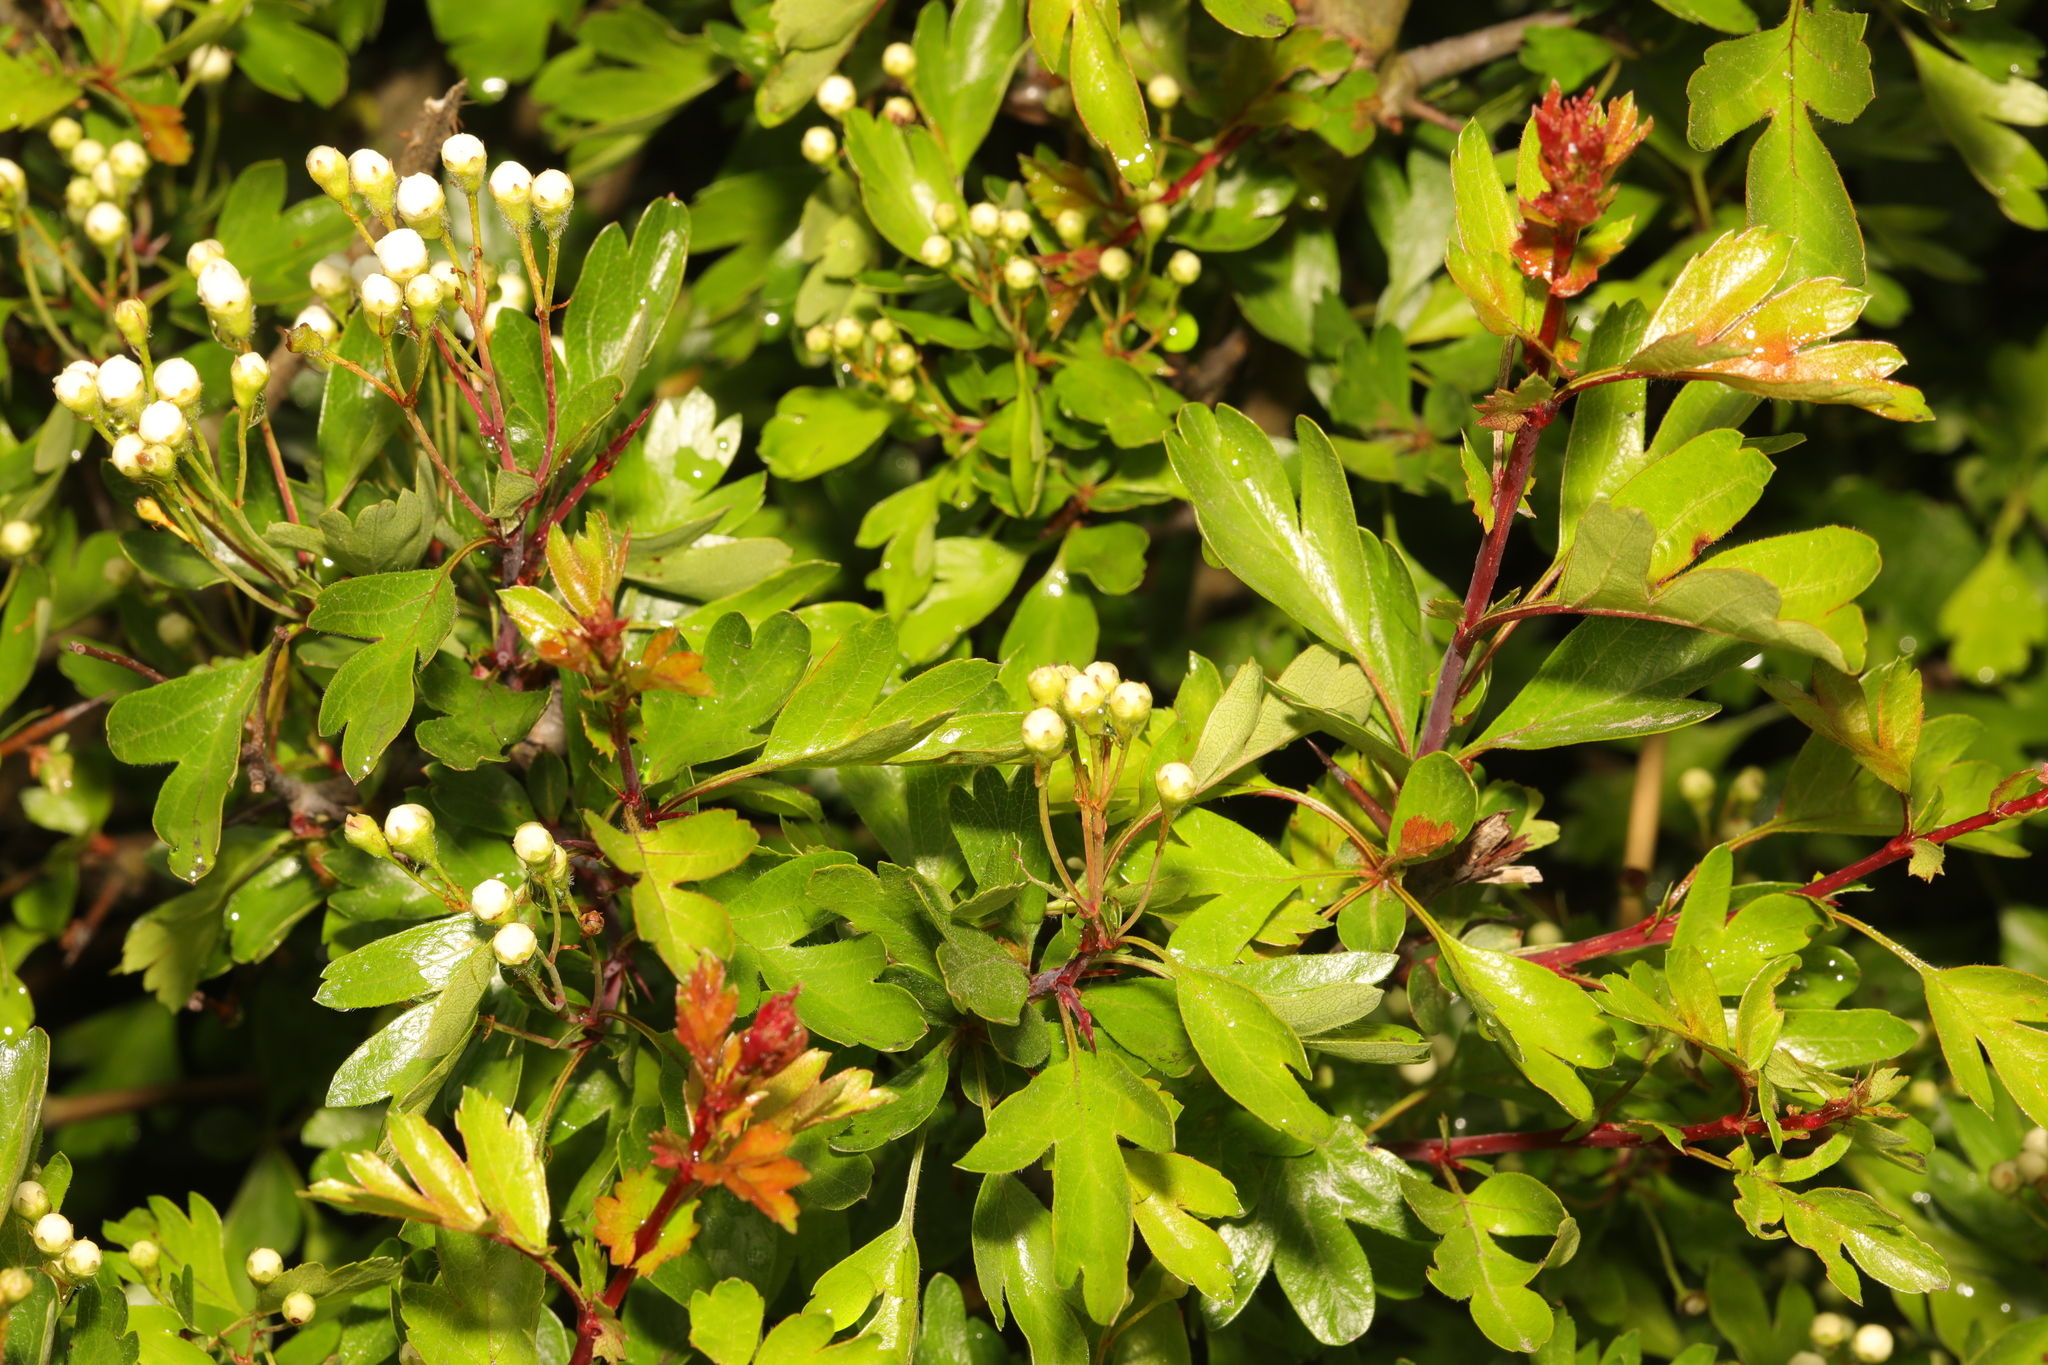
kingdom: Plantae
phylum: Tracheophyta
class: Magnoliopsida
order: Rosales
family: Rosaceae
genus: Crataegus
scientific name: Crataegus monogyna
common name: Hawthorn
